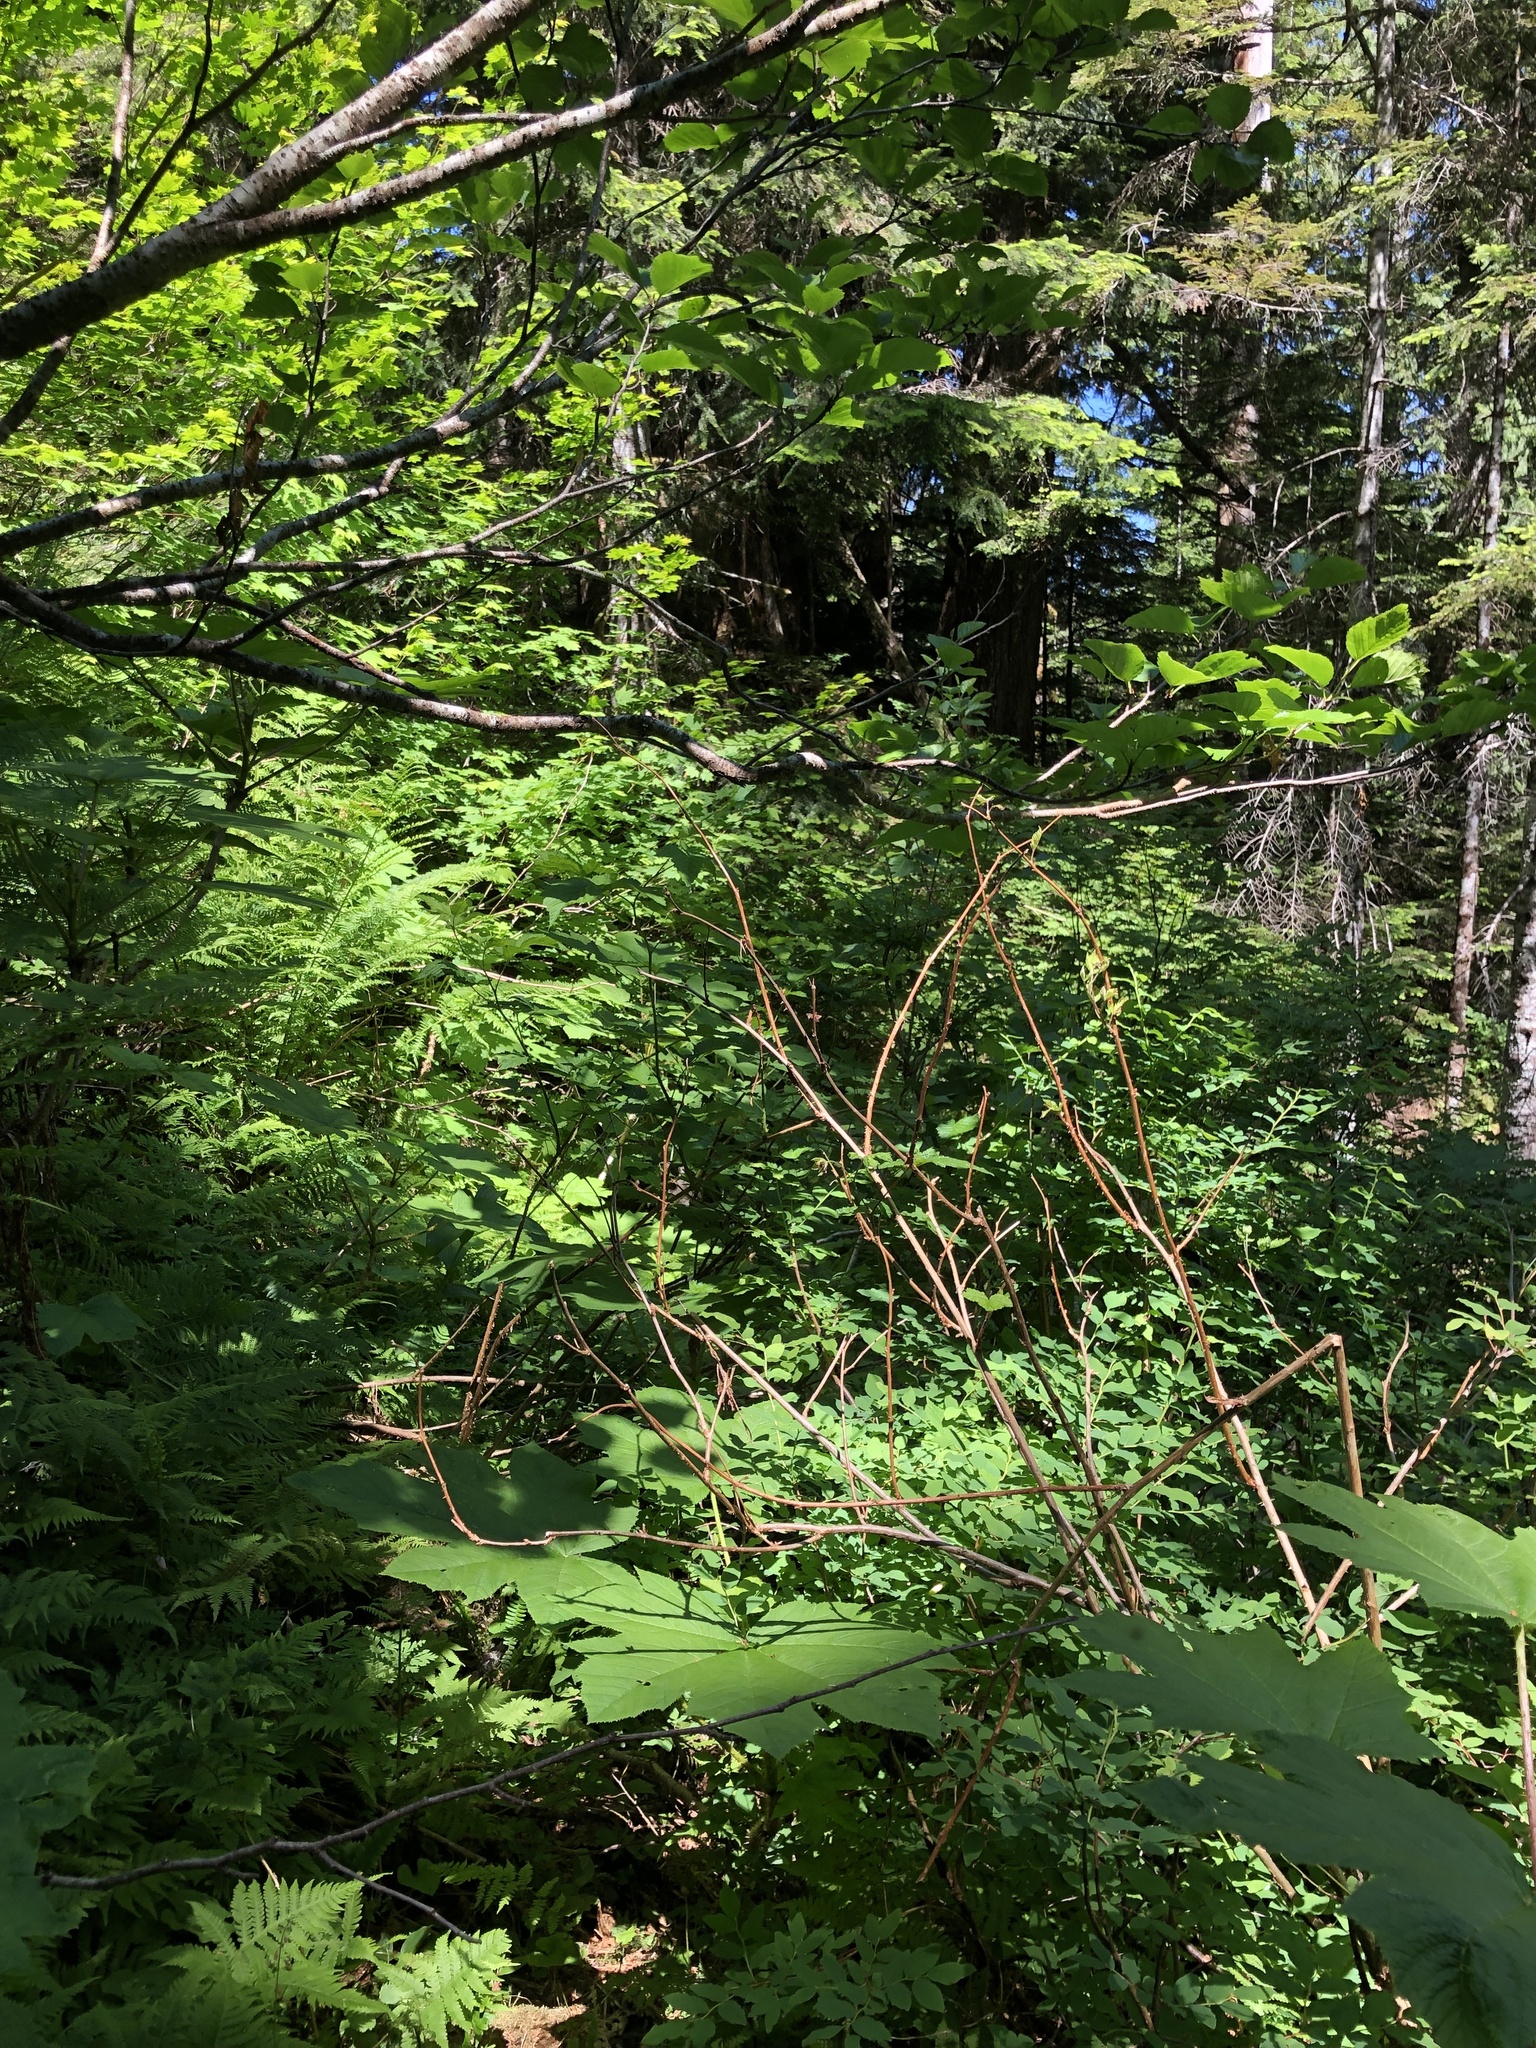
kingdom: Plantae
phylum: Tracheophyta
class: Magnoliopsida
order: Ericales
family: Ericaceae
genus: Vaccinium
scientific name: Vaccinium ovalifolium
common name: Early blueberry
